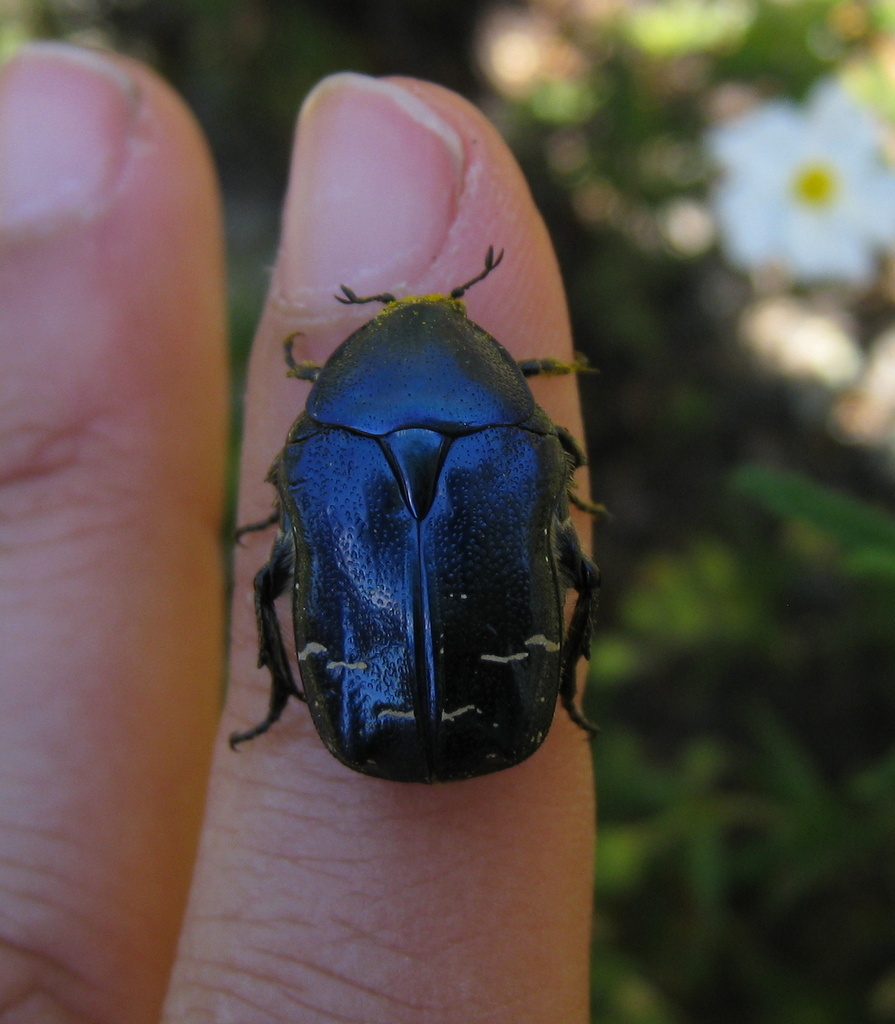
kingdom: Animalia
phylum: Arthropoda
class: Insecta
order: Coleoptera
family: Scarabaeidae
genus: Cetonia
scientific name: Cetonia aurata
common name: Rose chafer
